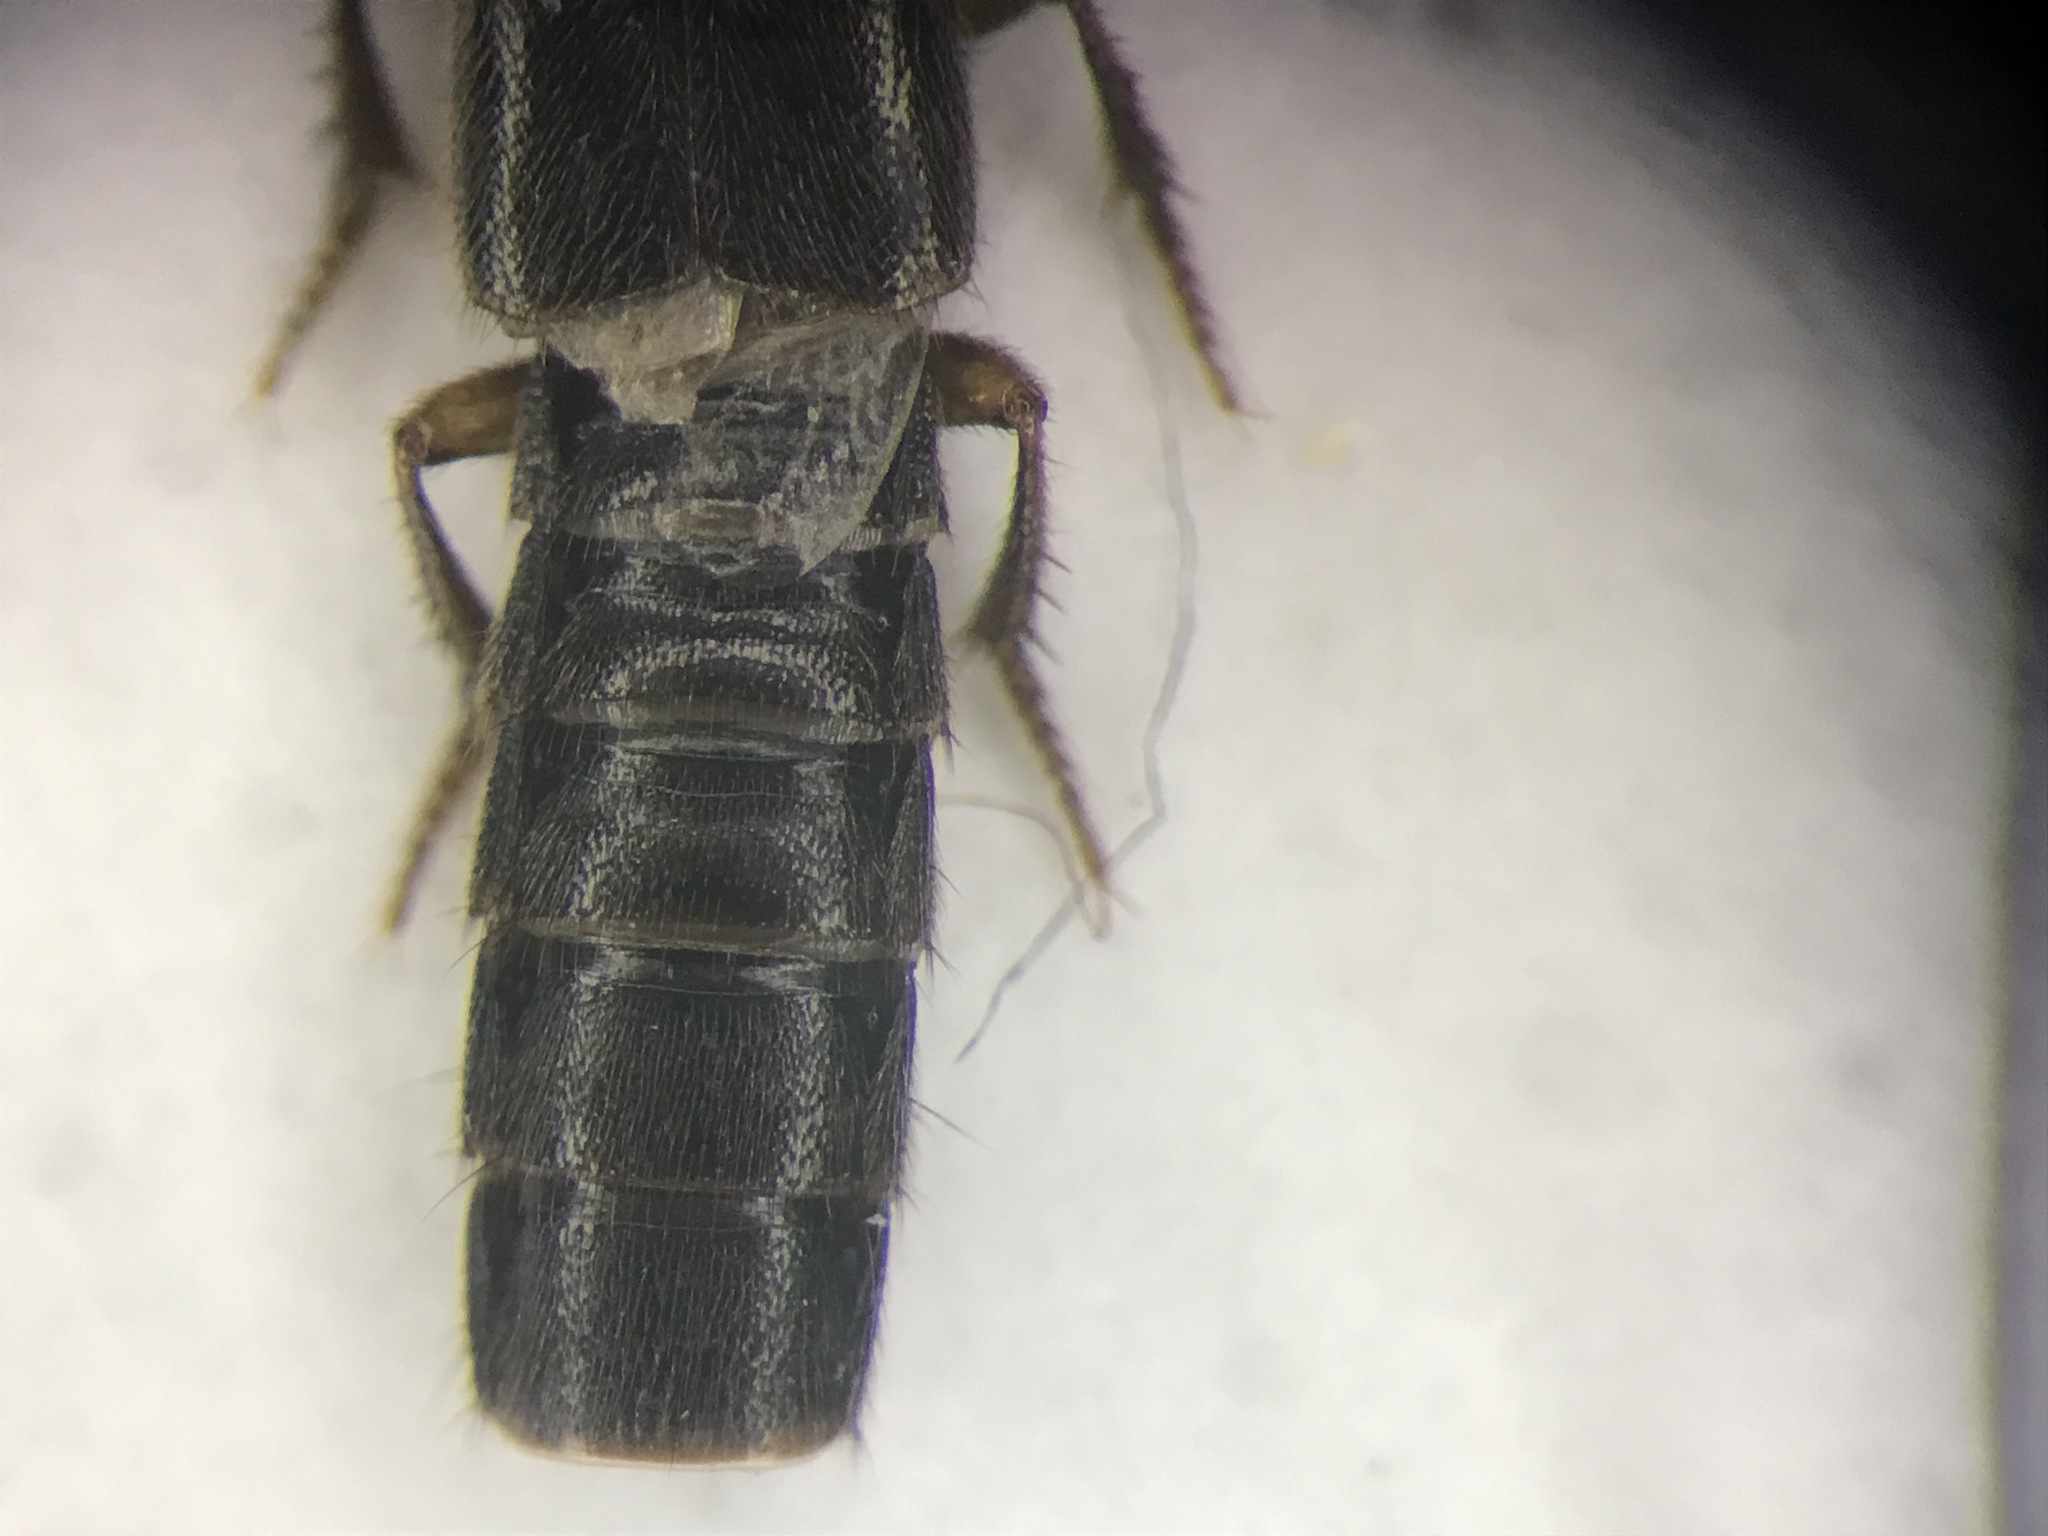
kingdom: Animalia
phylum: Arthropoda
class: Insecta
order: Coleoptera
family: Staphylinidae
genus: Philonthus
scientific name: Philonthus quadricollis
